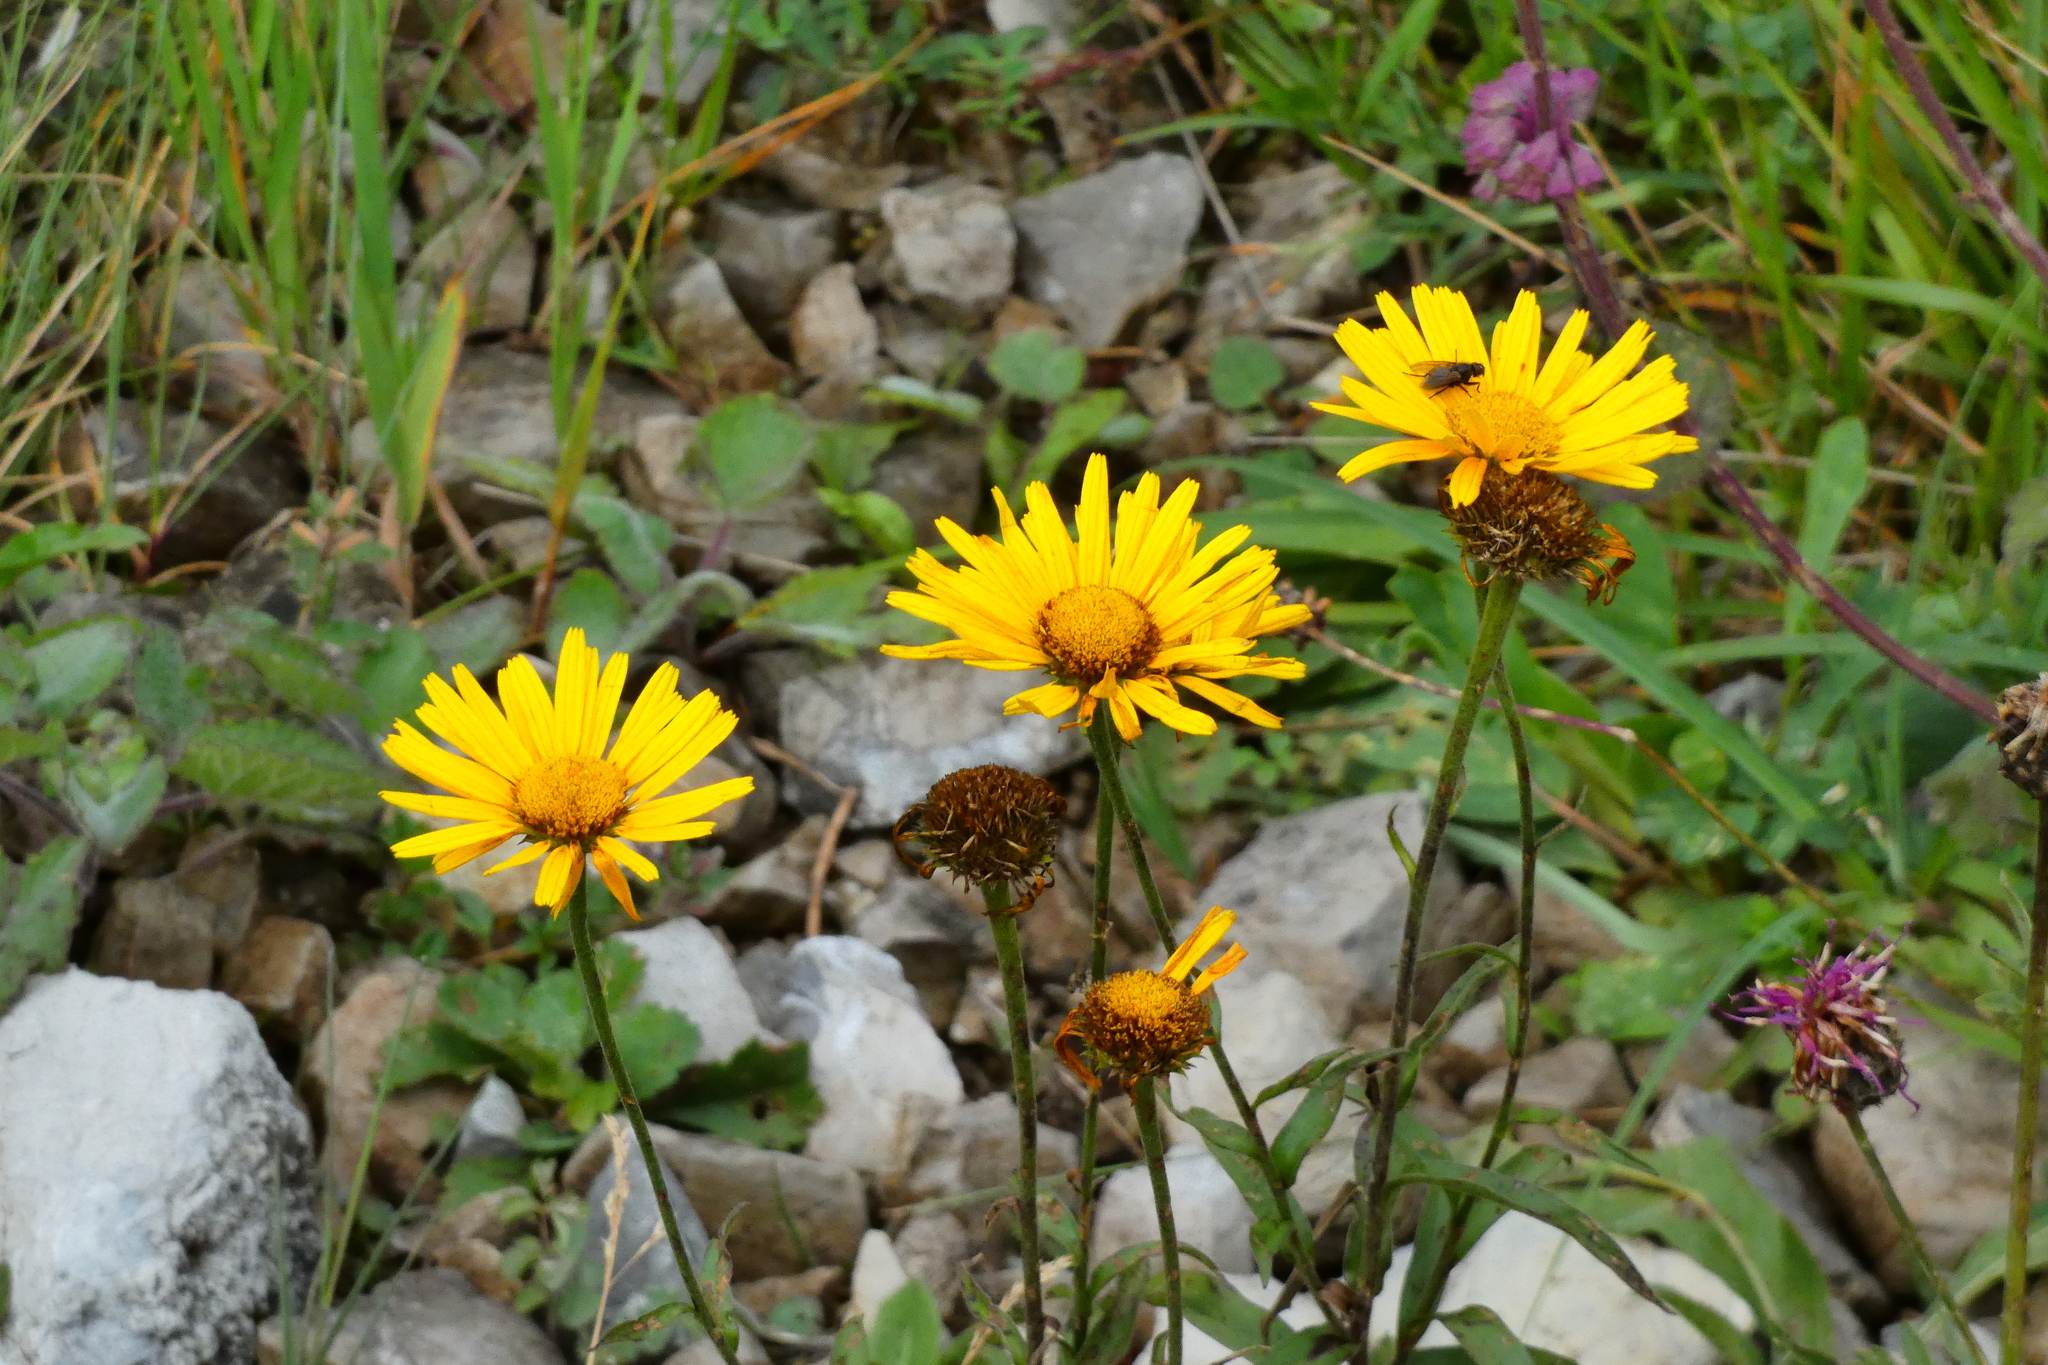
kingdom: Plantae
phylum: Tracheophyta
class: Magnoliopsida
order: Asterales
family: Asteraceae
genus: Buphthalmum
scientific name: Buphthalmum salicifolium
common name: Willow-leaved yellow-oxeye
